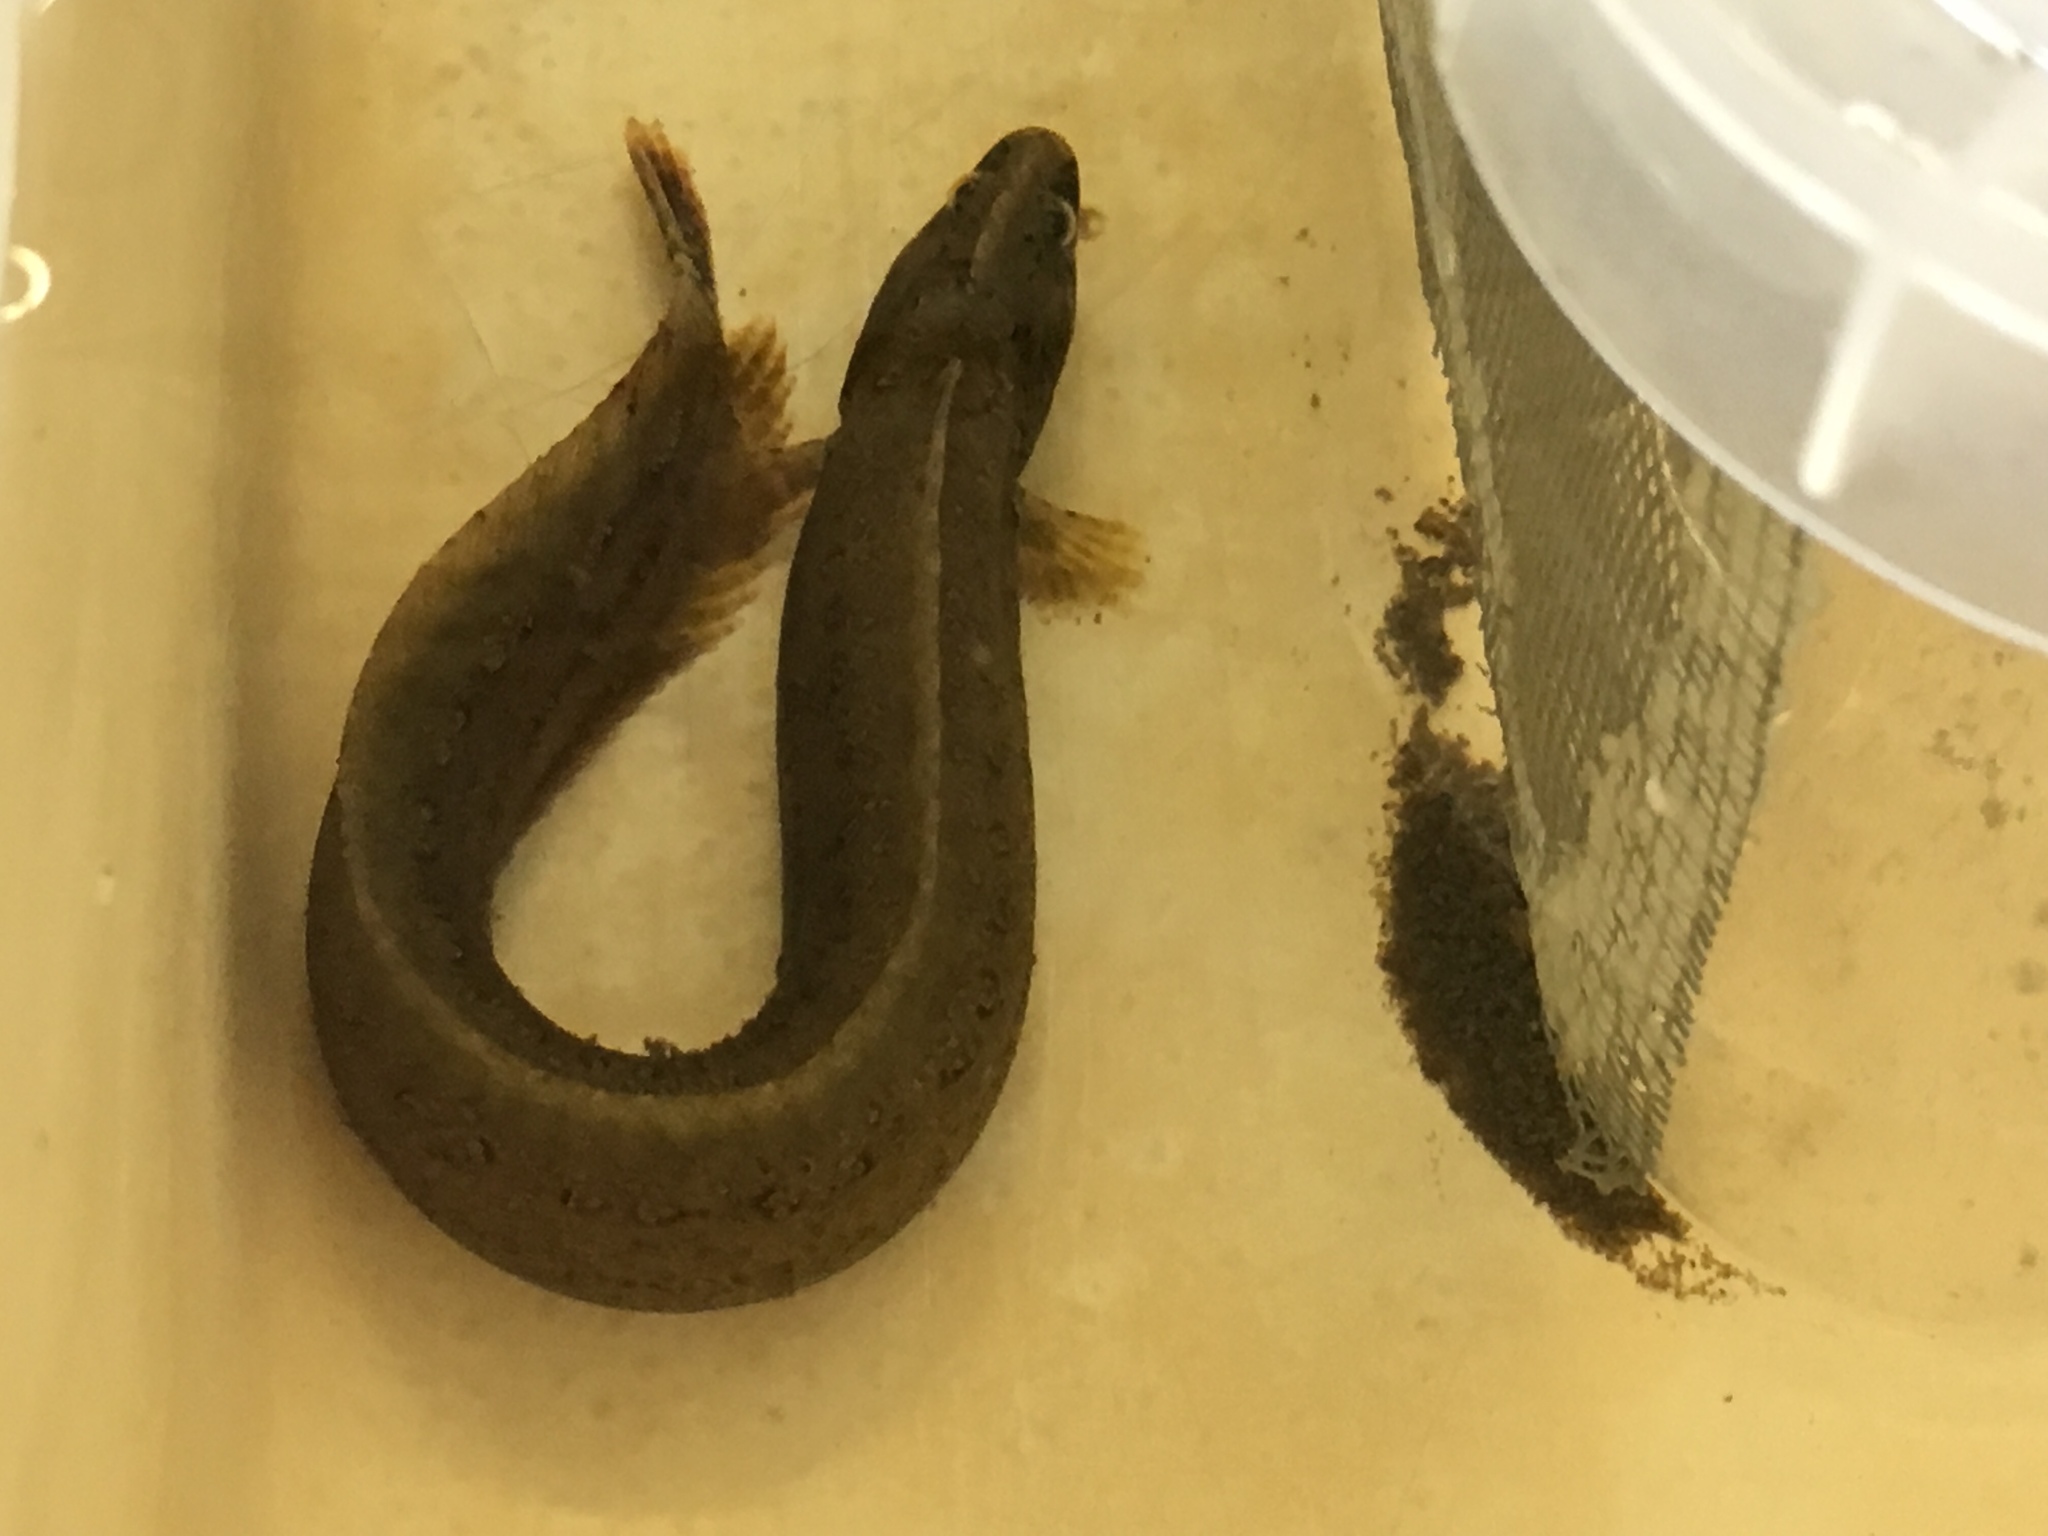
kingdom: Animalia
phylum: Chordata
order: Perciformes
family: Stichaeidae
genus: Anoplarchus
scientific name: Anoplarchus purpurescens
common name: High cockscomb
